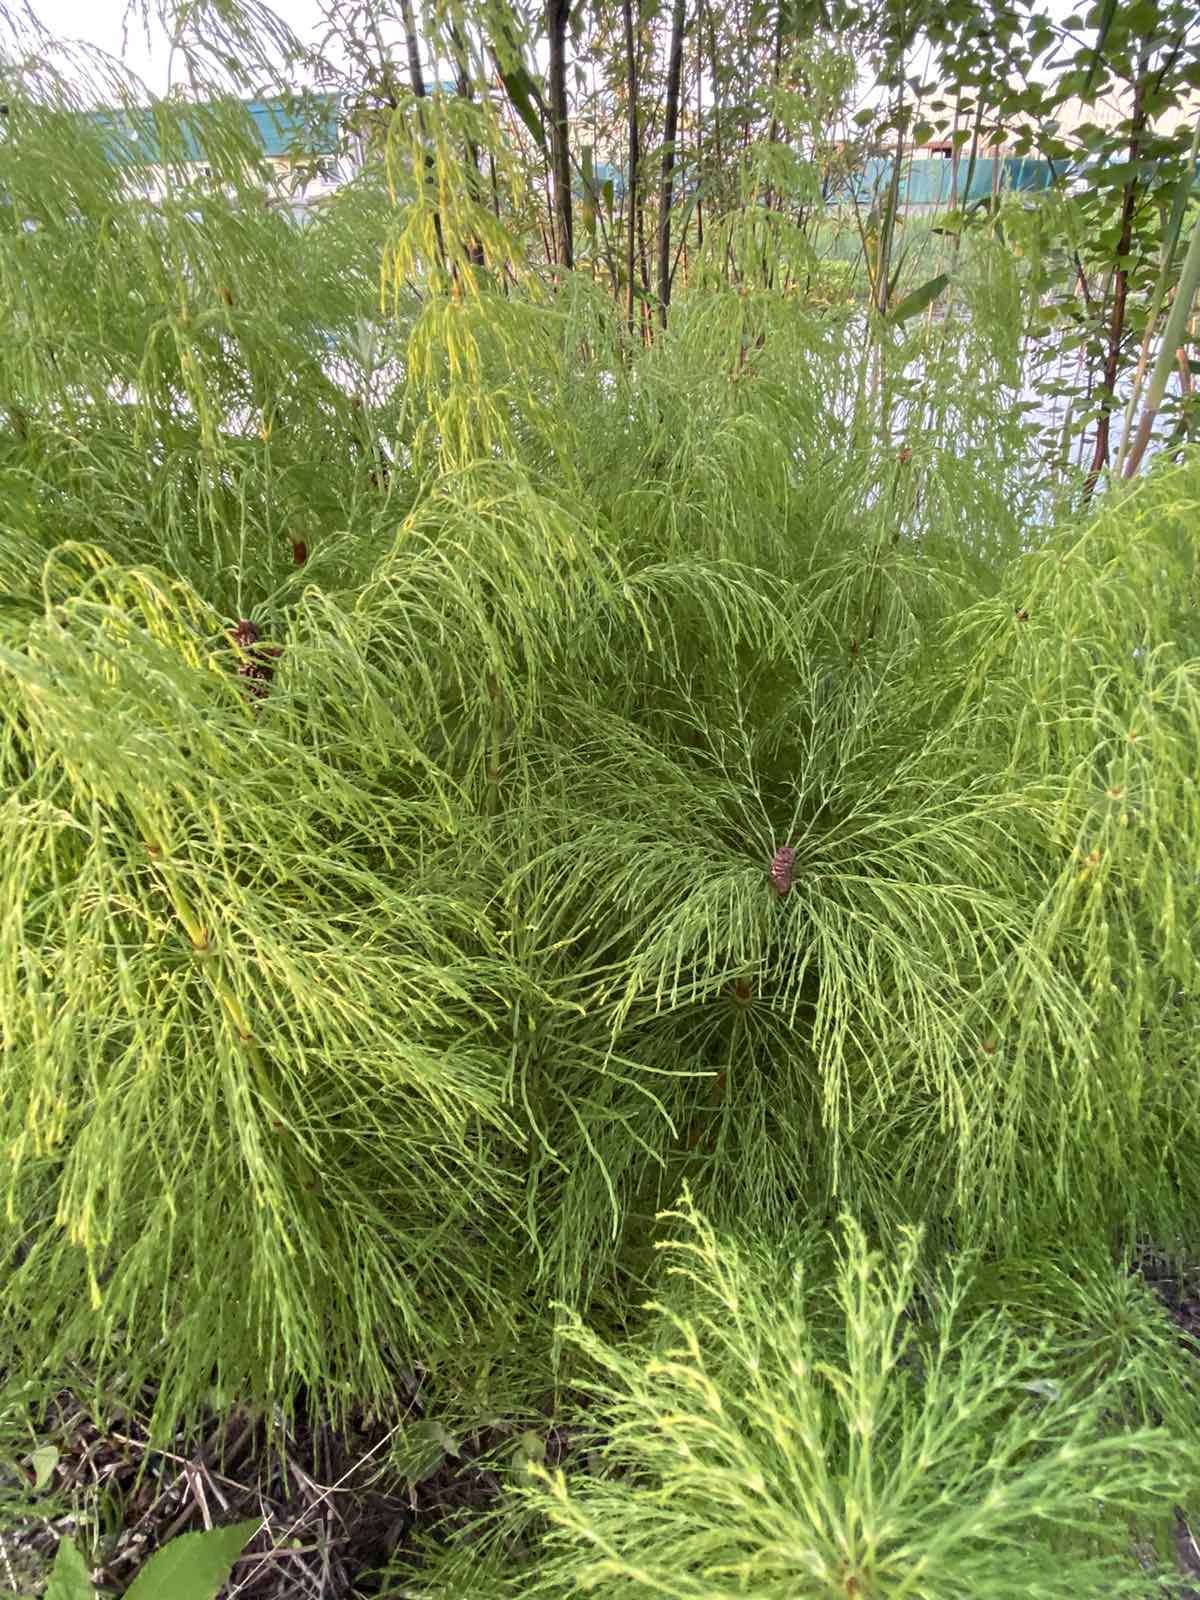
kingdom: Plantae
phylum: Tracheophyta
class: Polypodiopsida
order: Equisetales
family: Equisetaceae
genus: Equisetum
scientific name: Equisetum sylvaticum
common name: Wood horsetail
